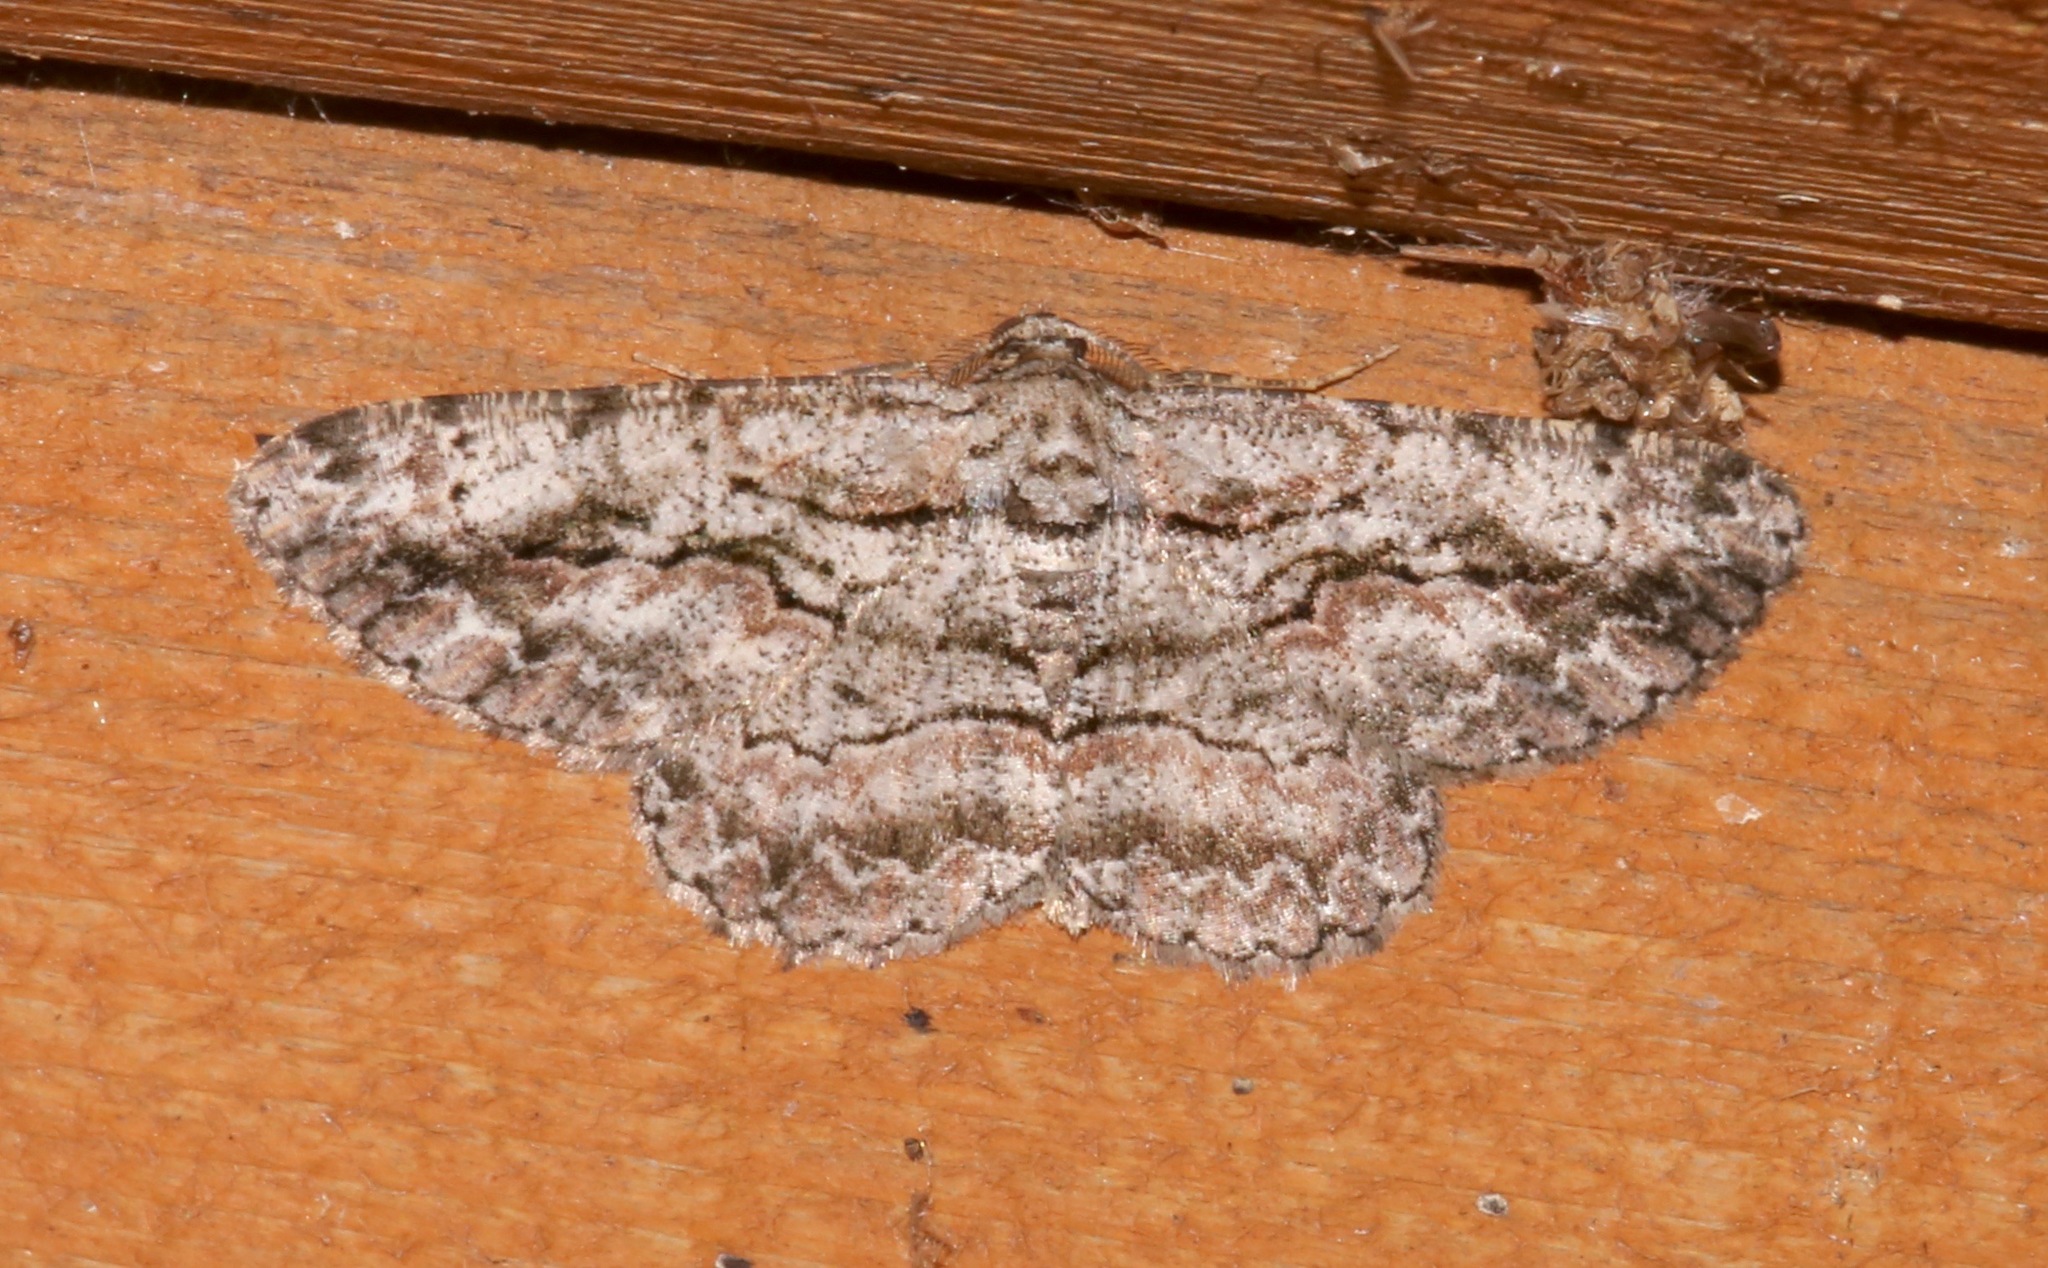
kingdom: Animalia
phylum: Arthropoda
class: Insecta
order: Lepidoptera
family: Geometridae
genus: Anavitrinella
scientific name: Anavitrinella pampinaria
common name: Common gray
